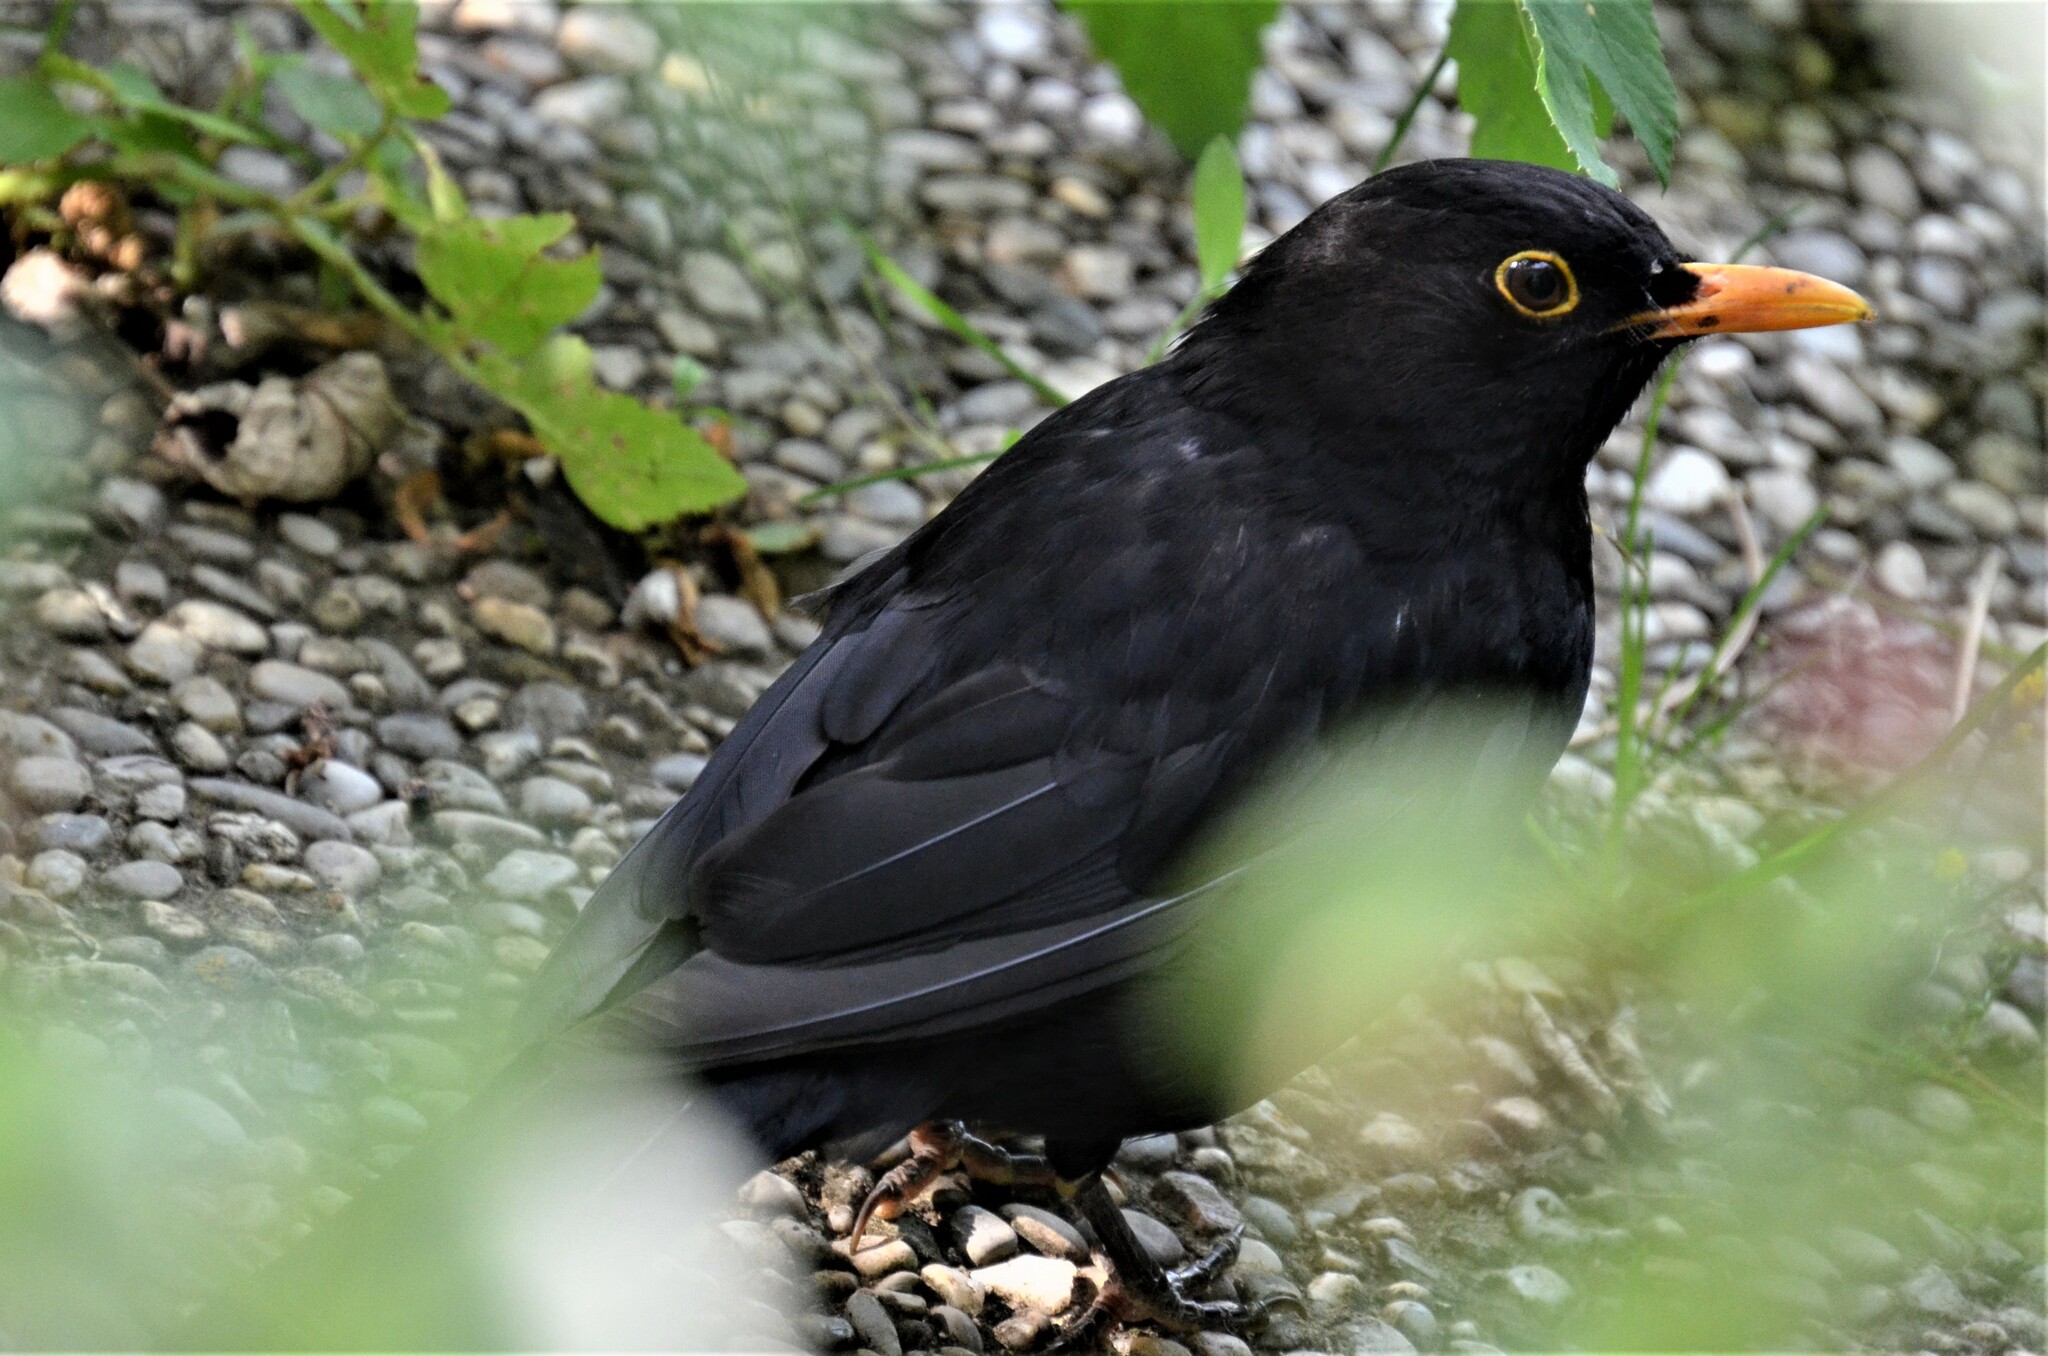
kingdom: Animalia
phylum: Chordata
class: Aves
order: Passeriformes
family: Turdidae
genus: Turdus
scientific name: Turdus merula
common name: Common blackbird
